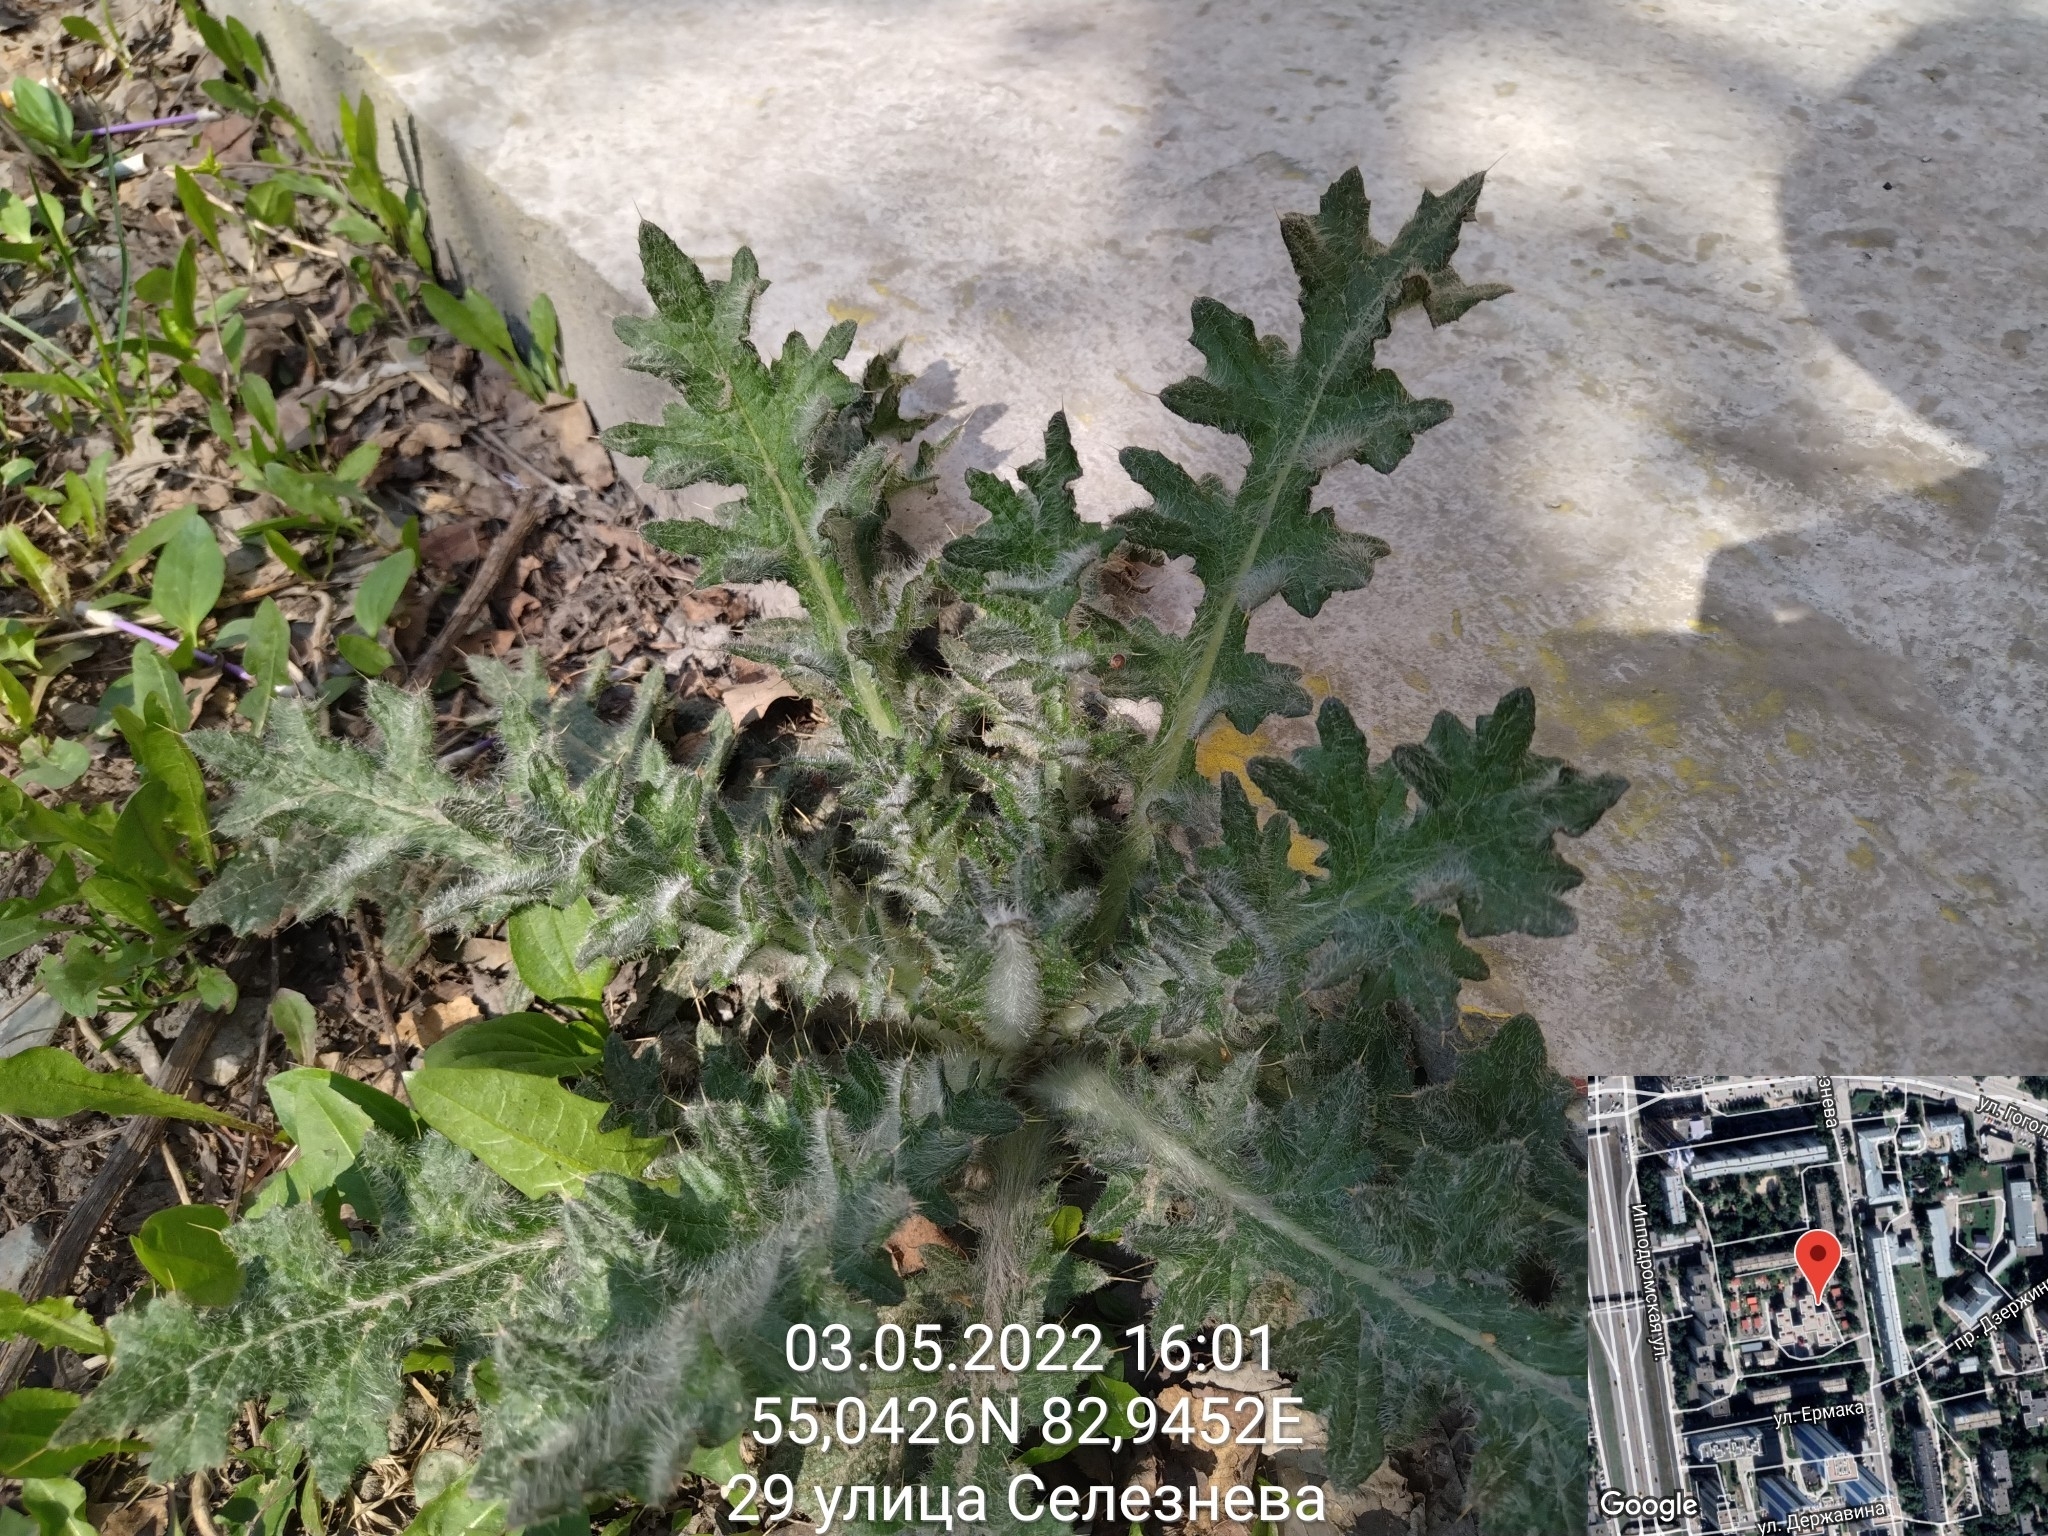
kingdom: Plantae
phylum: Tracheophyta
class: Magnoliopsida
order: Asterales
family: Asteraceae
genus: Cirsium
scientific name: Cirsium vulgare
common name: Bull thistle
